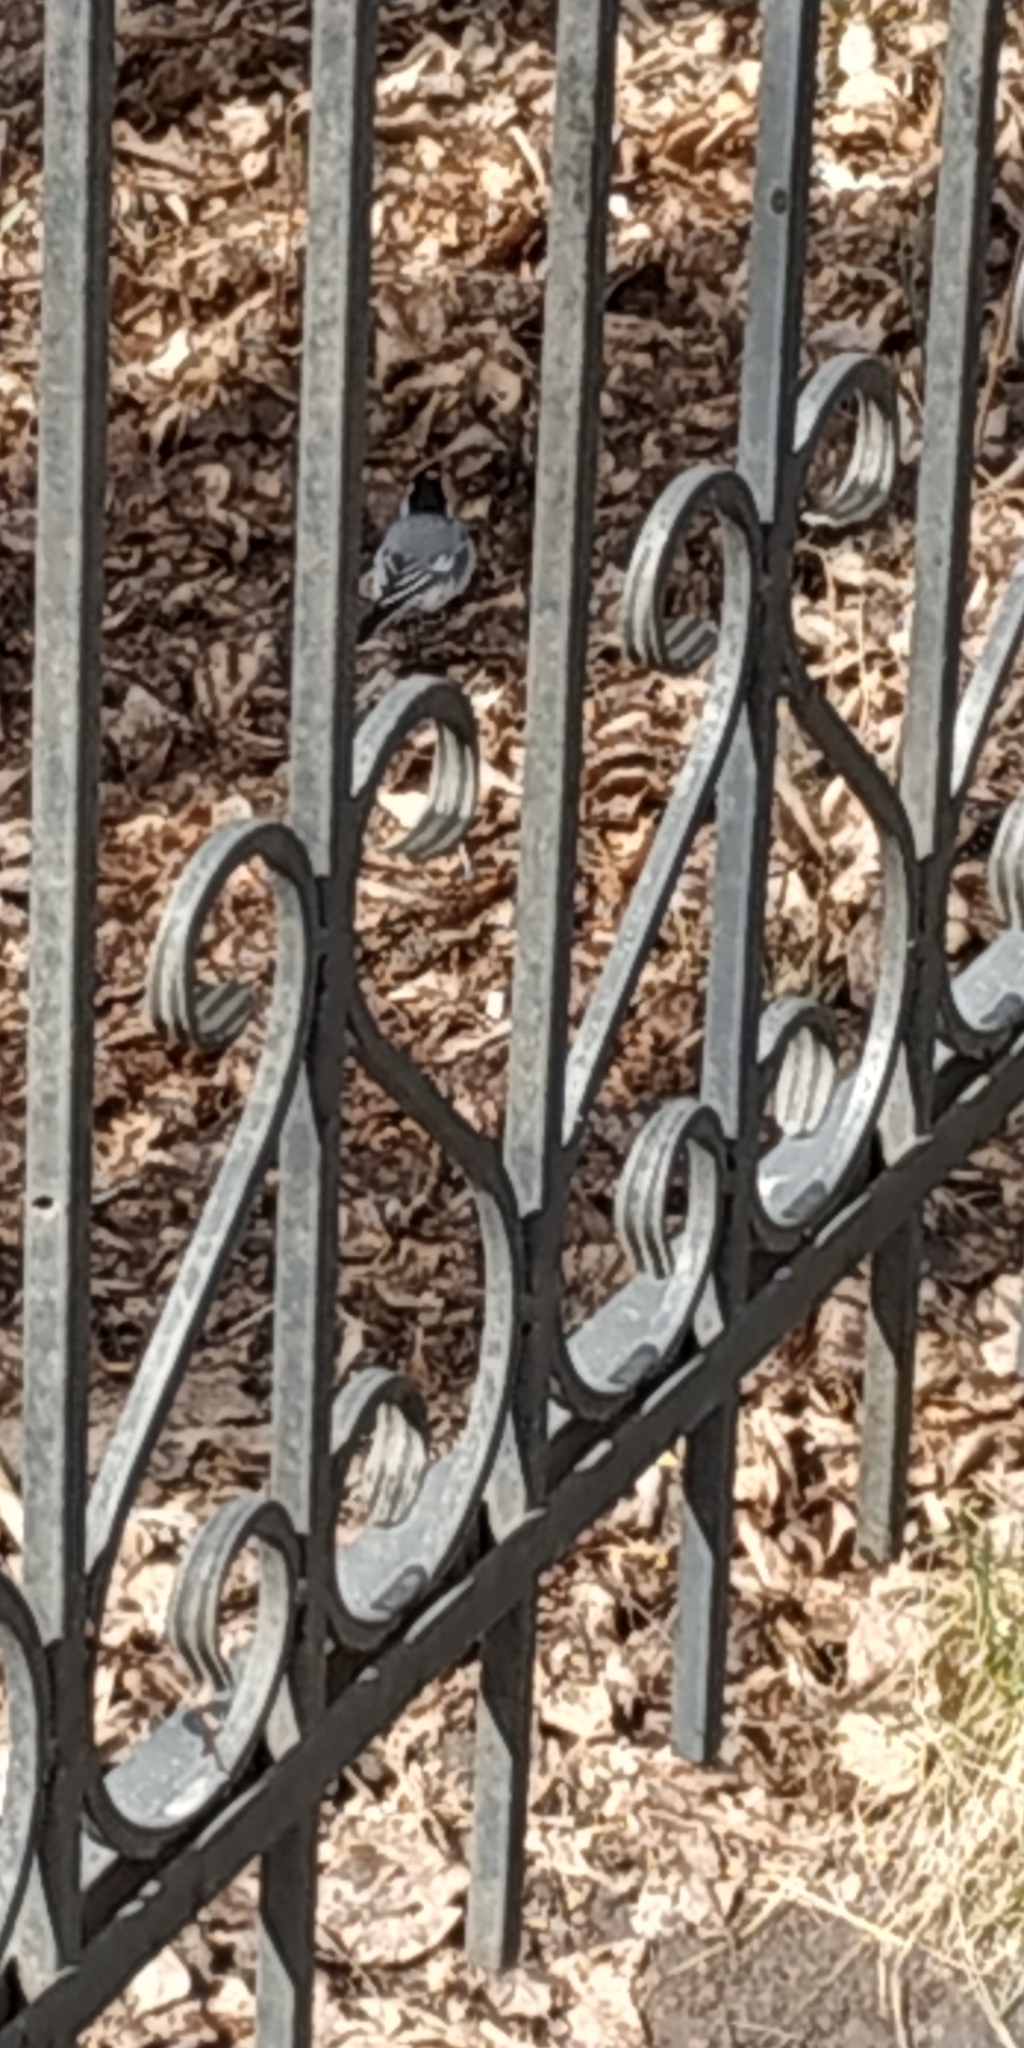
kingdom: Animalia
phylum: Chordata
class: Aves
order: Passeriformes
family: Motacillidae
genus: Motacilla
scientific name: Motacilla alba
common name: White wagtail
